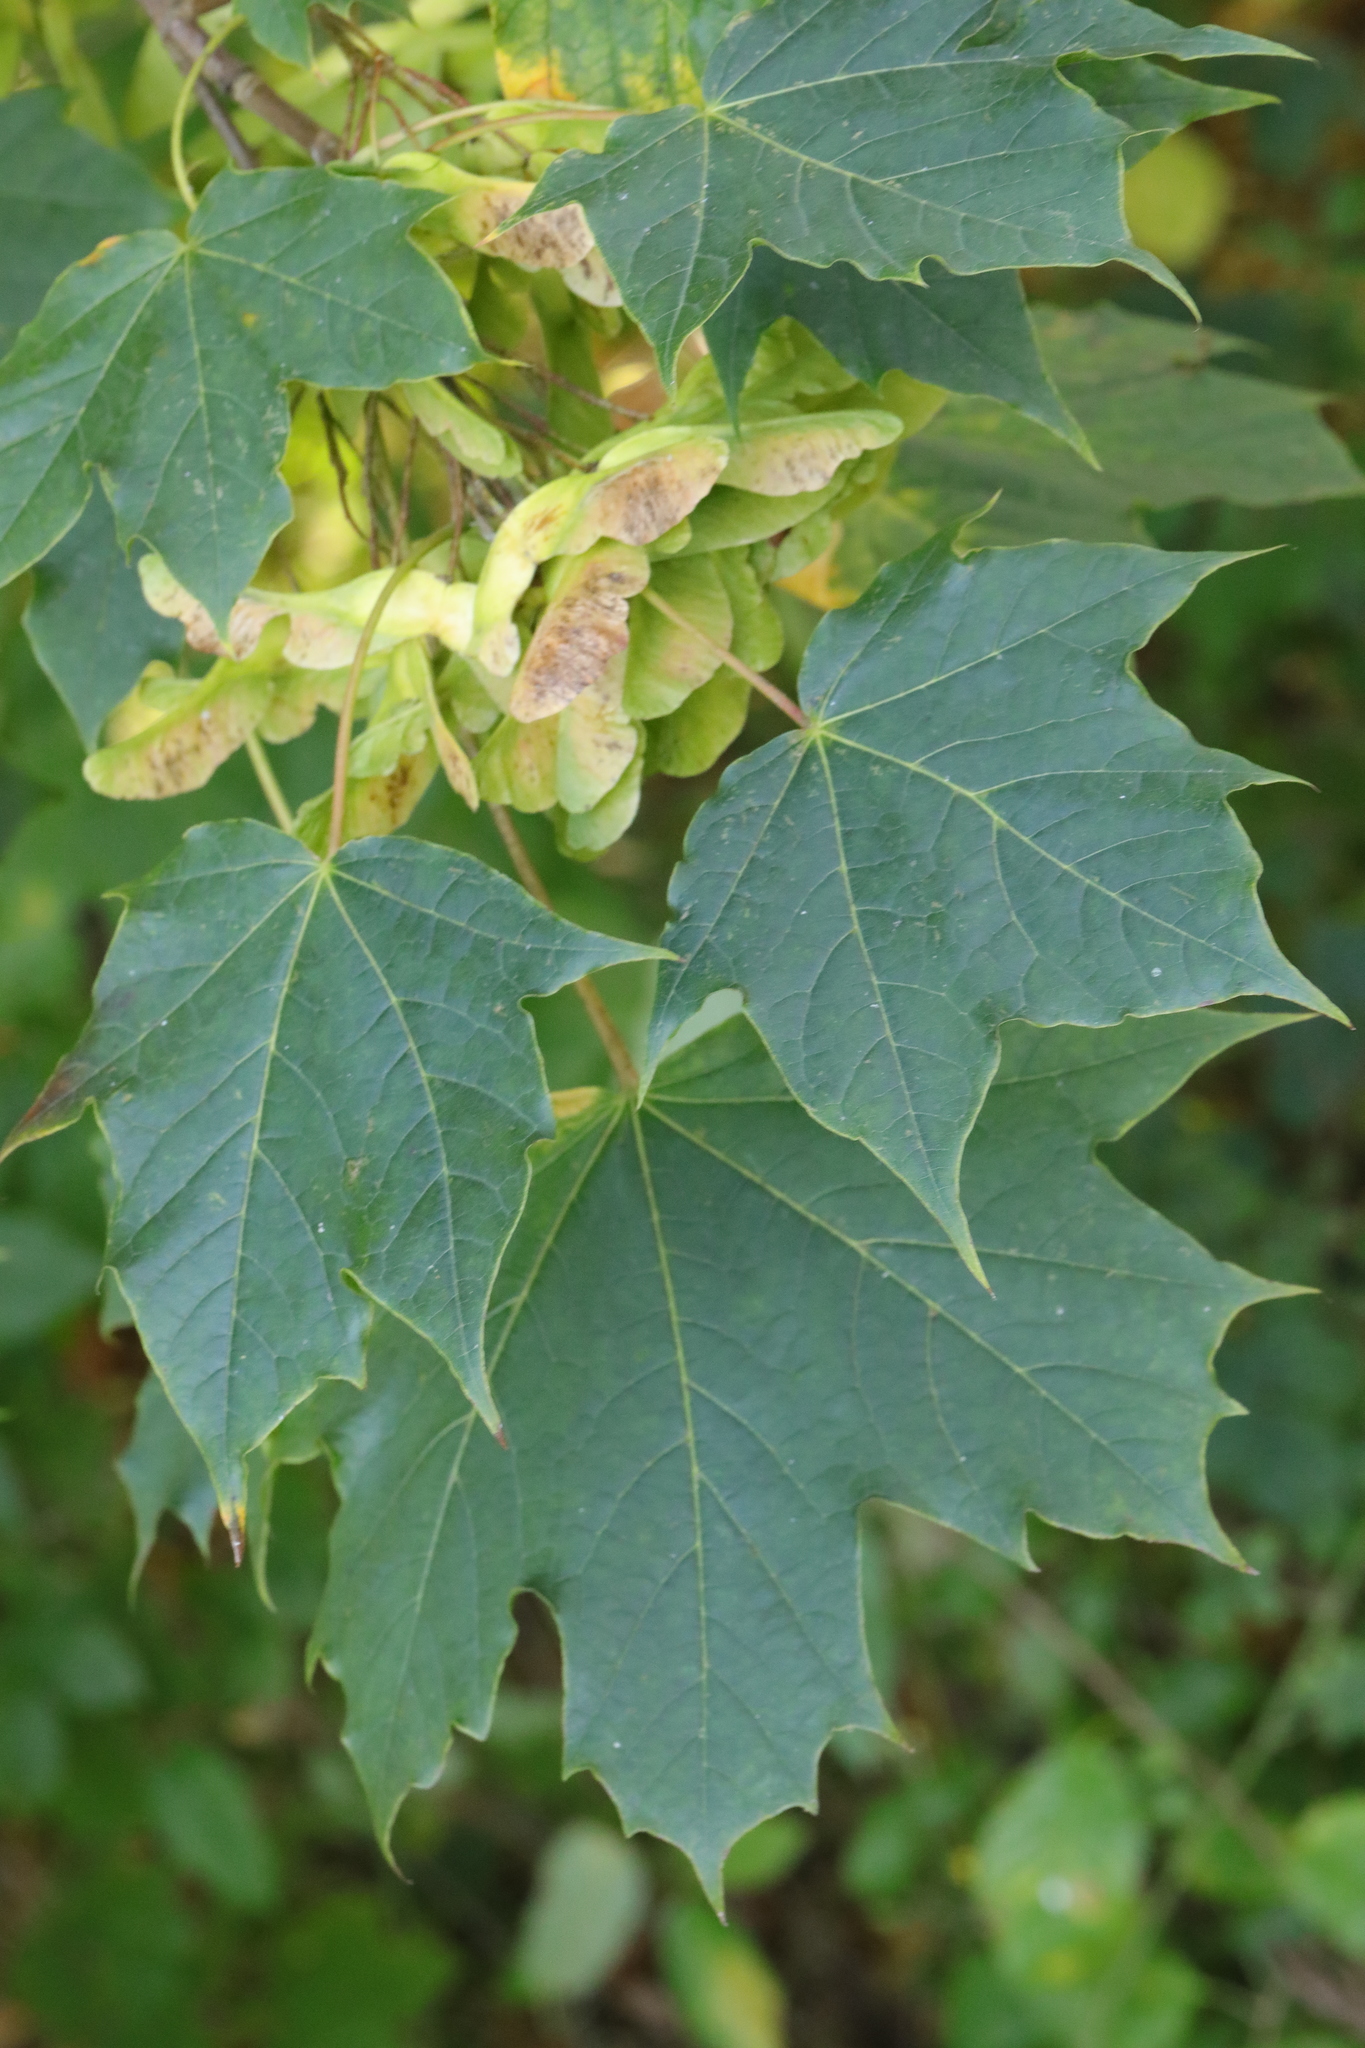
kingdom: Plantae
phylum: Tracheophyta
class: Magnoliopsida
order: Sapindales
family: Sapindaceae
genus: Acer
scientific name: Acer platanoides
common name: Norway maple
